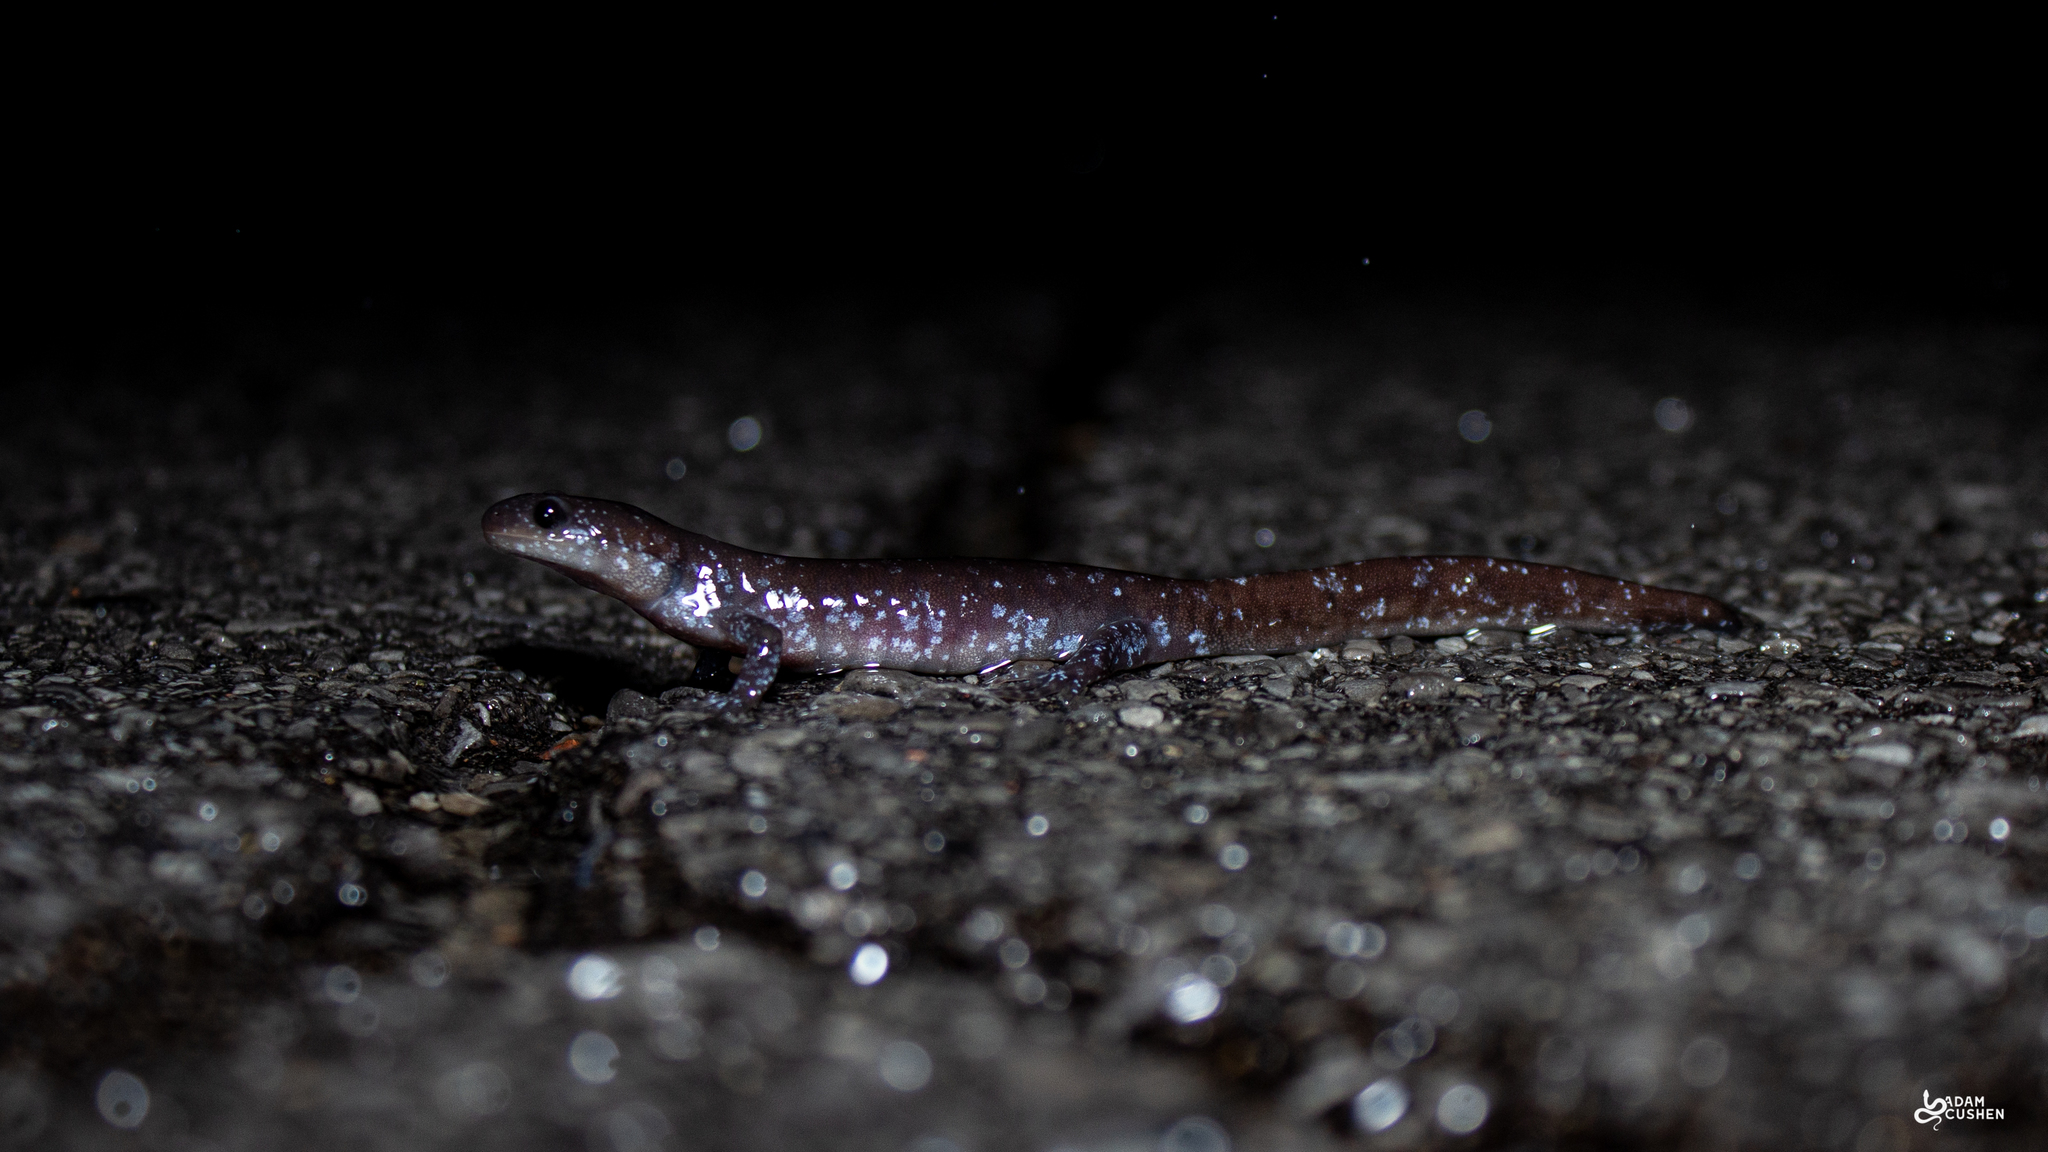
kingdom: Animalia
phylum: Chordata
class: Amphibia
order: Caudata
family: Ambystomatidae
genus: Ambystoma
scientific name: Ambystoma laterale
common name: Blue-spotted salamander
